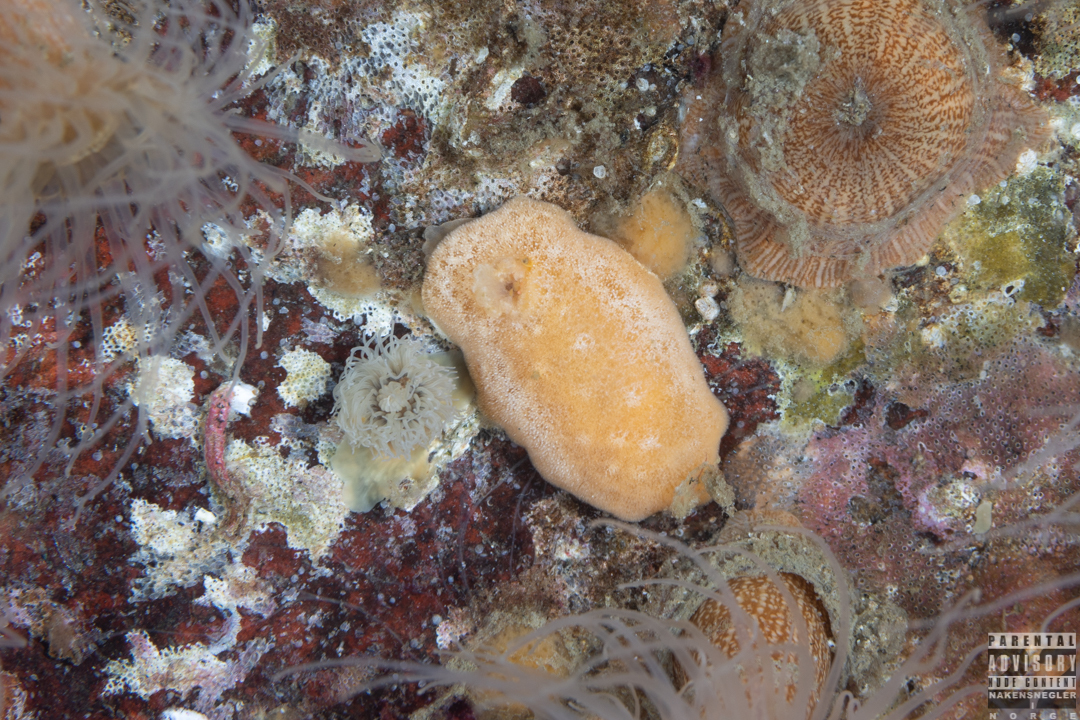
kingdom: Animalia
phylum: Mollusca
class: Gastropoda
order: Nudibranchia
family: Discodorididae
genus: Jorunna
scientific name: Jorunna tomentosa
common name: Grey sea slug
